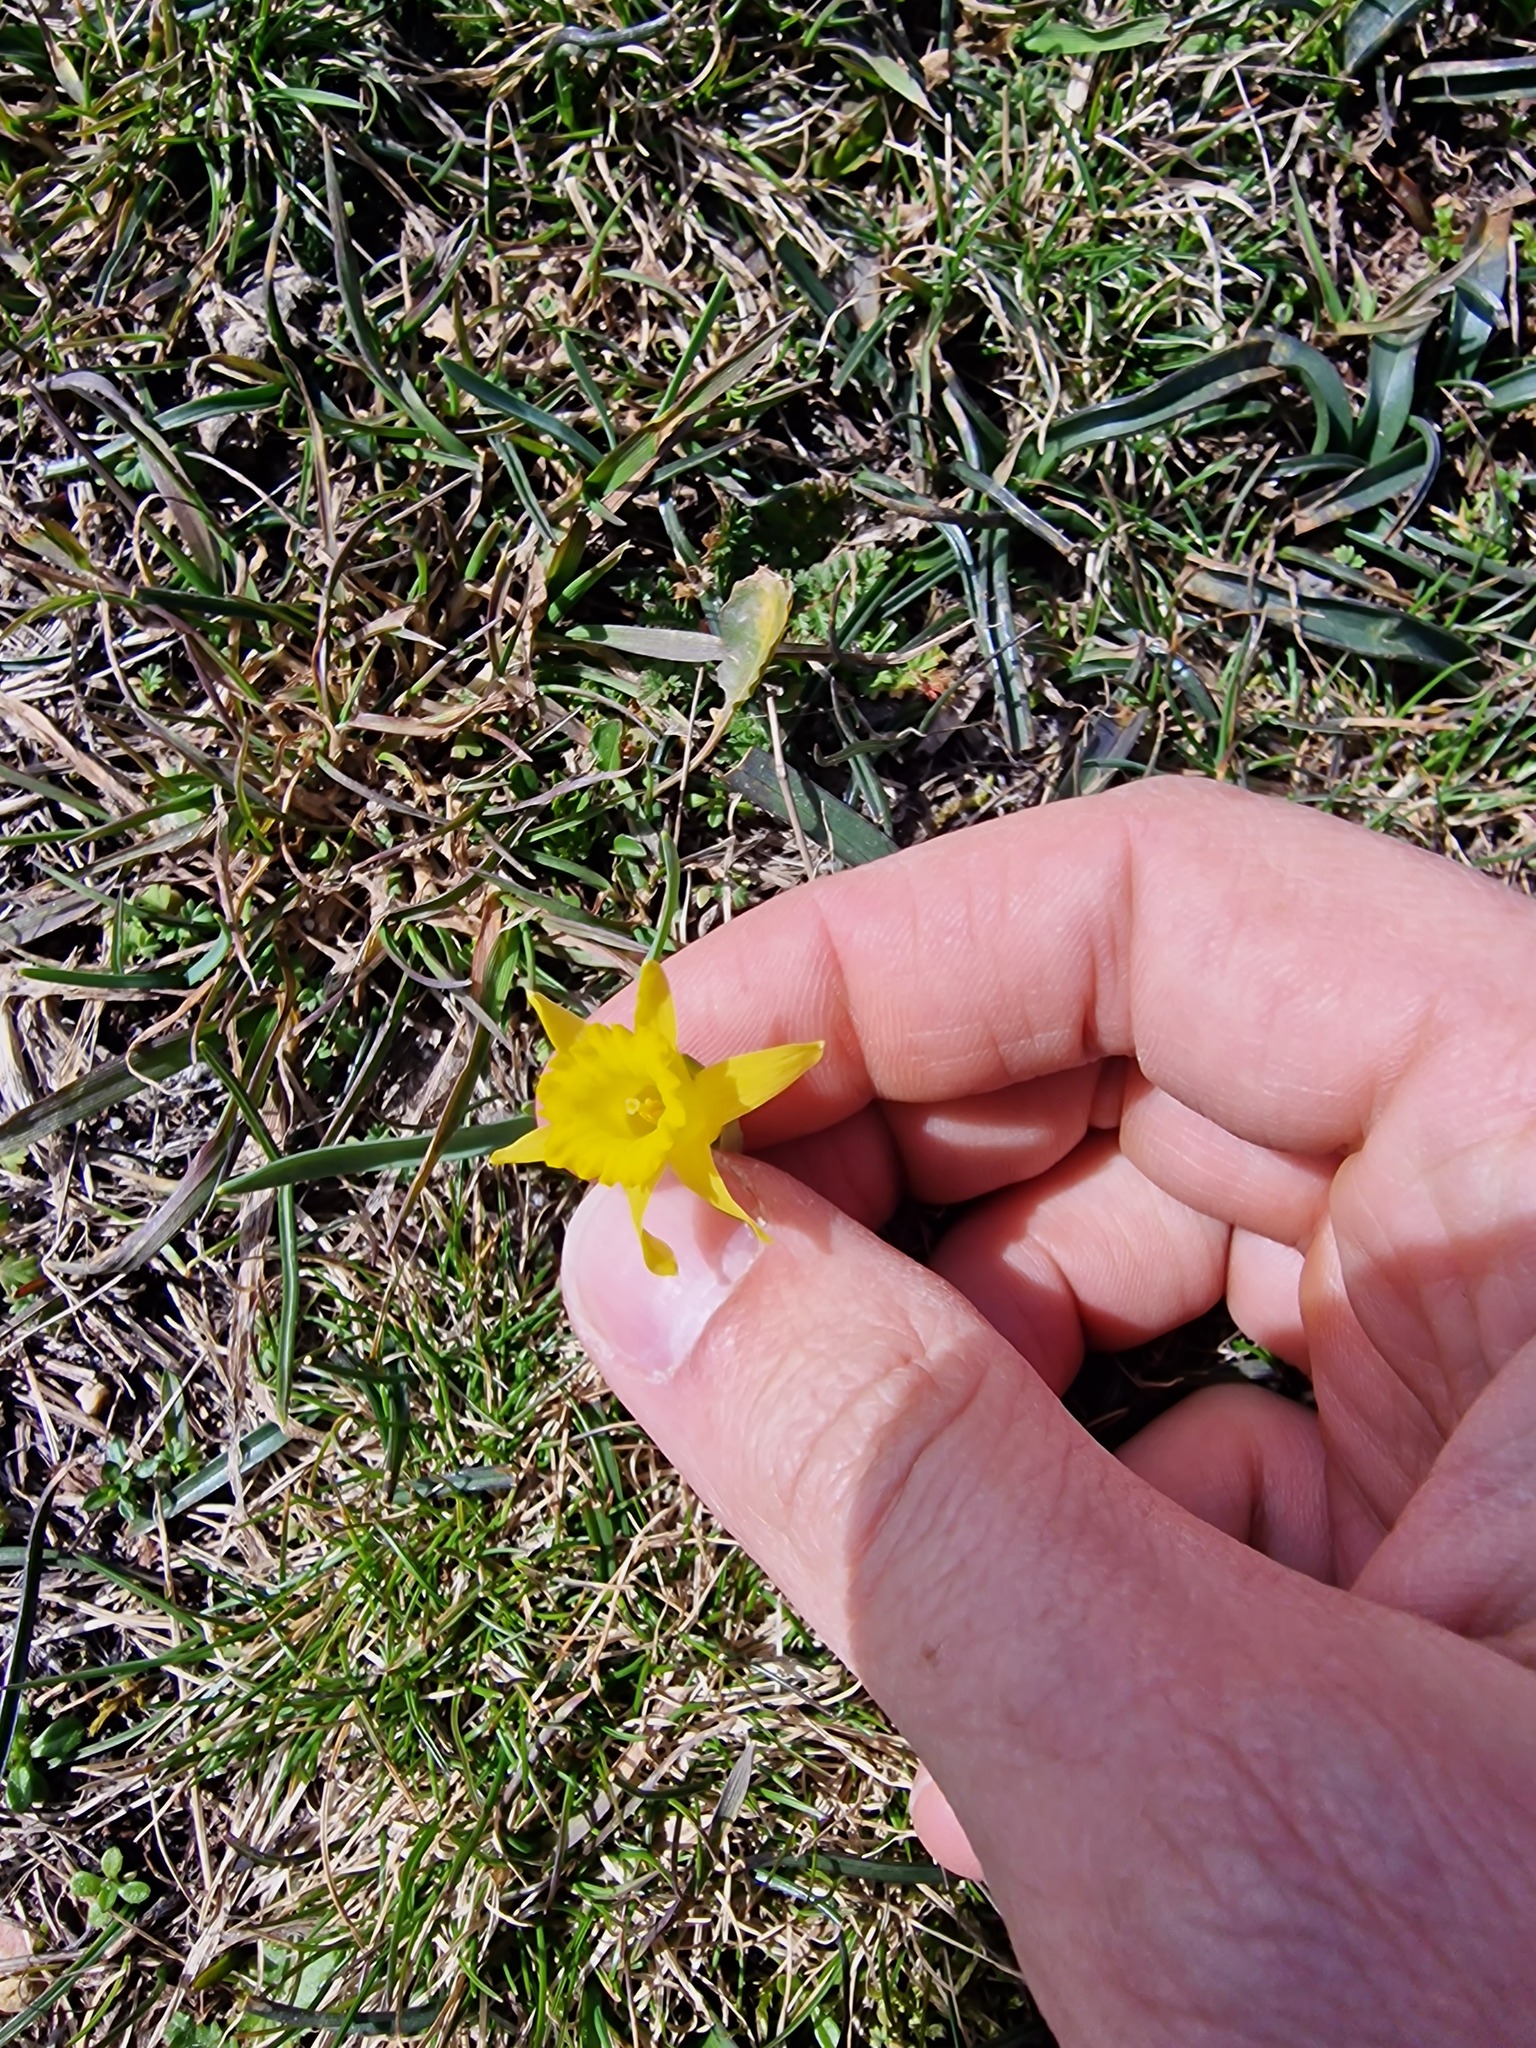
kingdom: Plantae
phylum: Tracheophyta
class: Liliopsida
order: Asparagales
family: Amaryllidaceae
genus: Narcissus
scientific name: Narcissus minor
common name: Lesser daffodil
